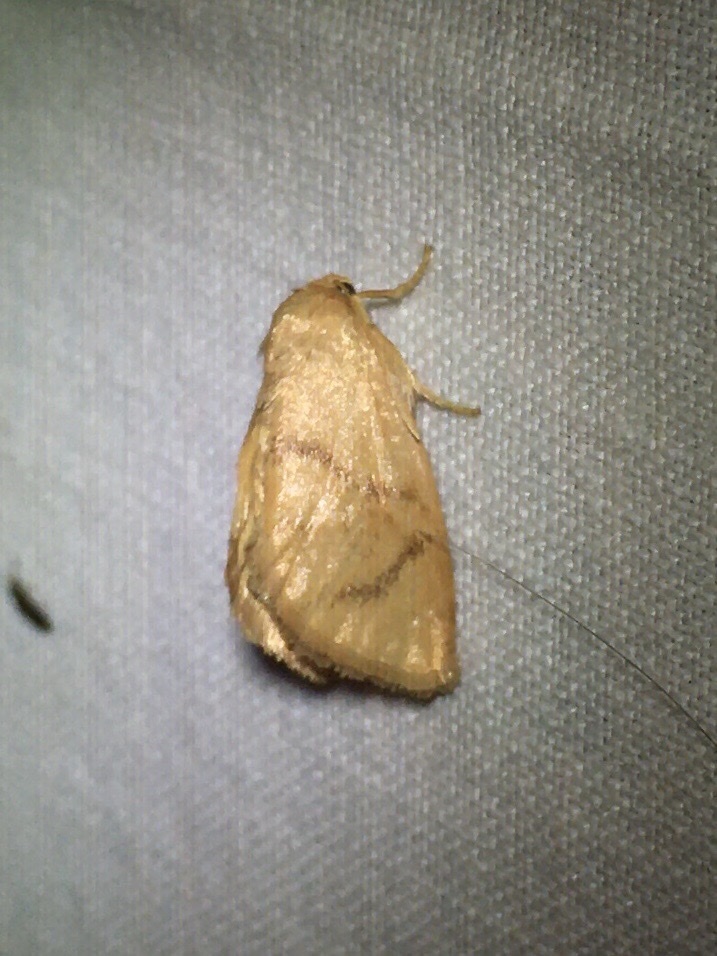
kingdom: Animalia
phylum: Arthropoda
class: Insecta
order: Lepidoptera
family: Limacodidae
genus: Tortricidia
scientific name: Tortricidia flexuosa
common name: Abbreviated button slug moth
